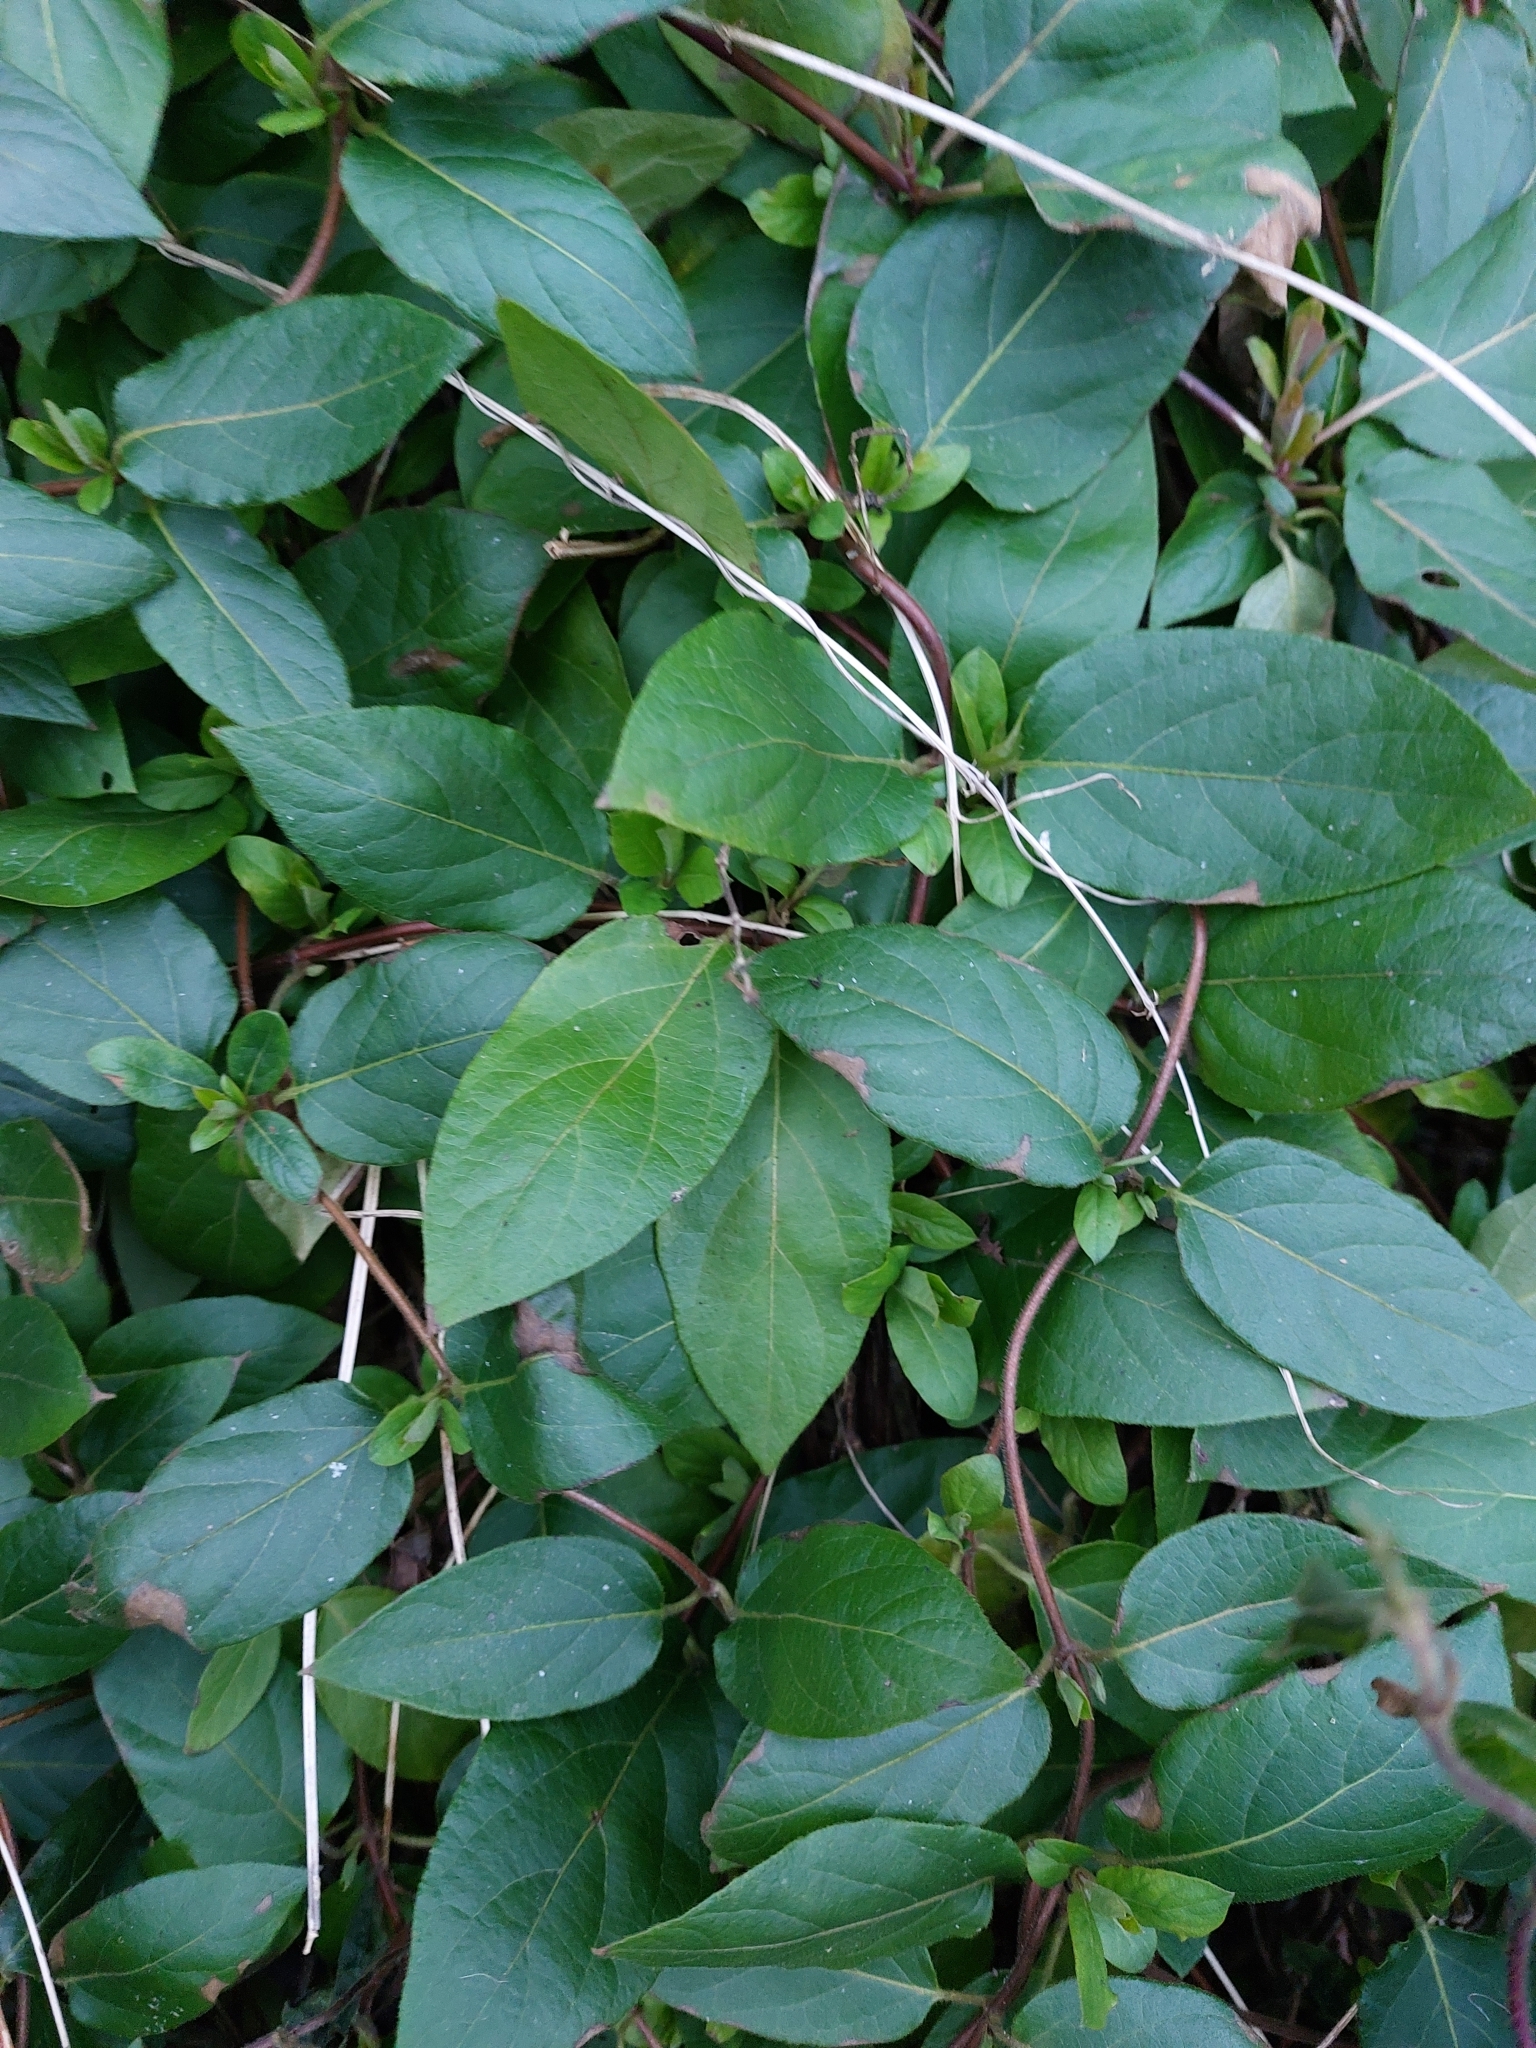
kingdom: Plantae
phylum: Tracheophyta
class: Magnoliopsida
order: Dipsacales
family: Caprifoliaceae
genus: Lonicera
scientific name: Lonicera japonica
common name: Japanese honeysuckle
